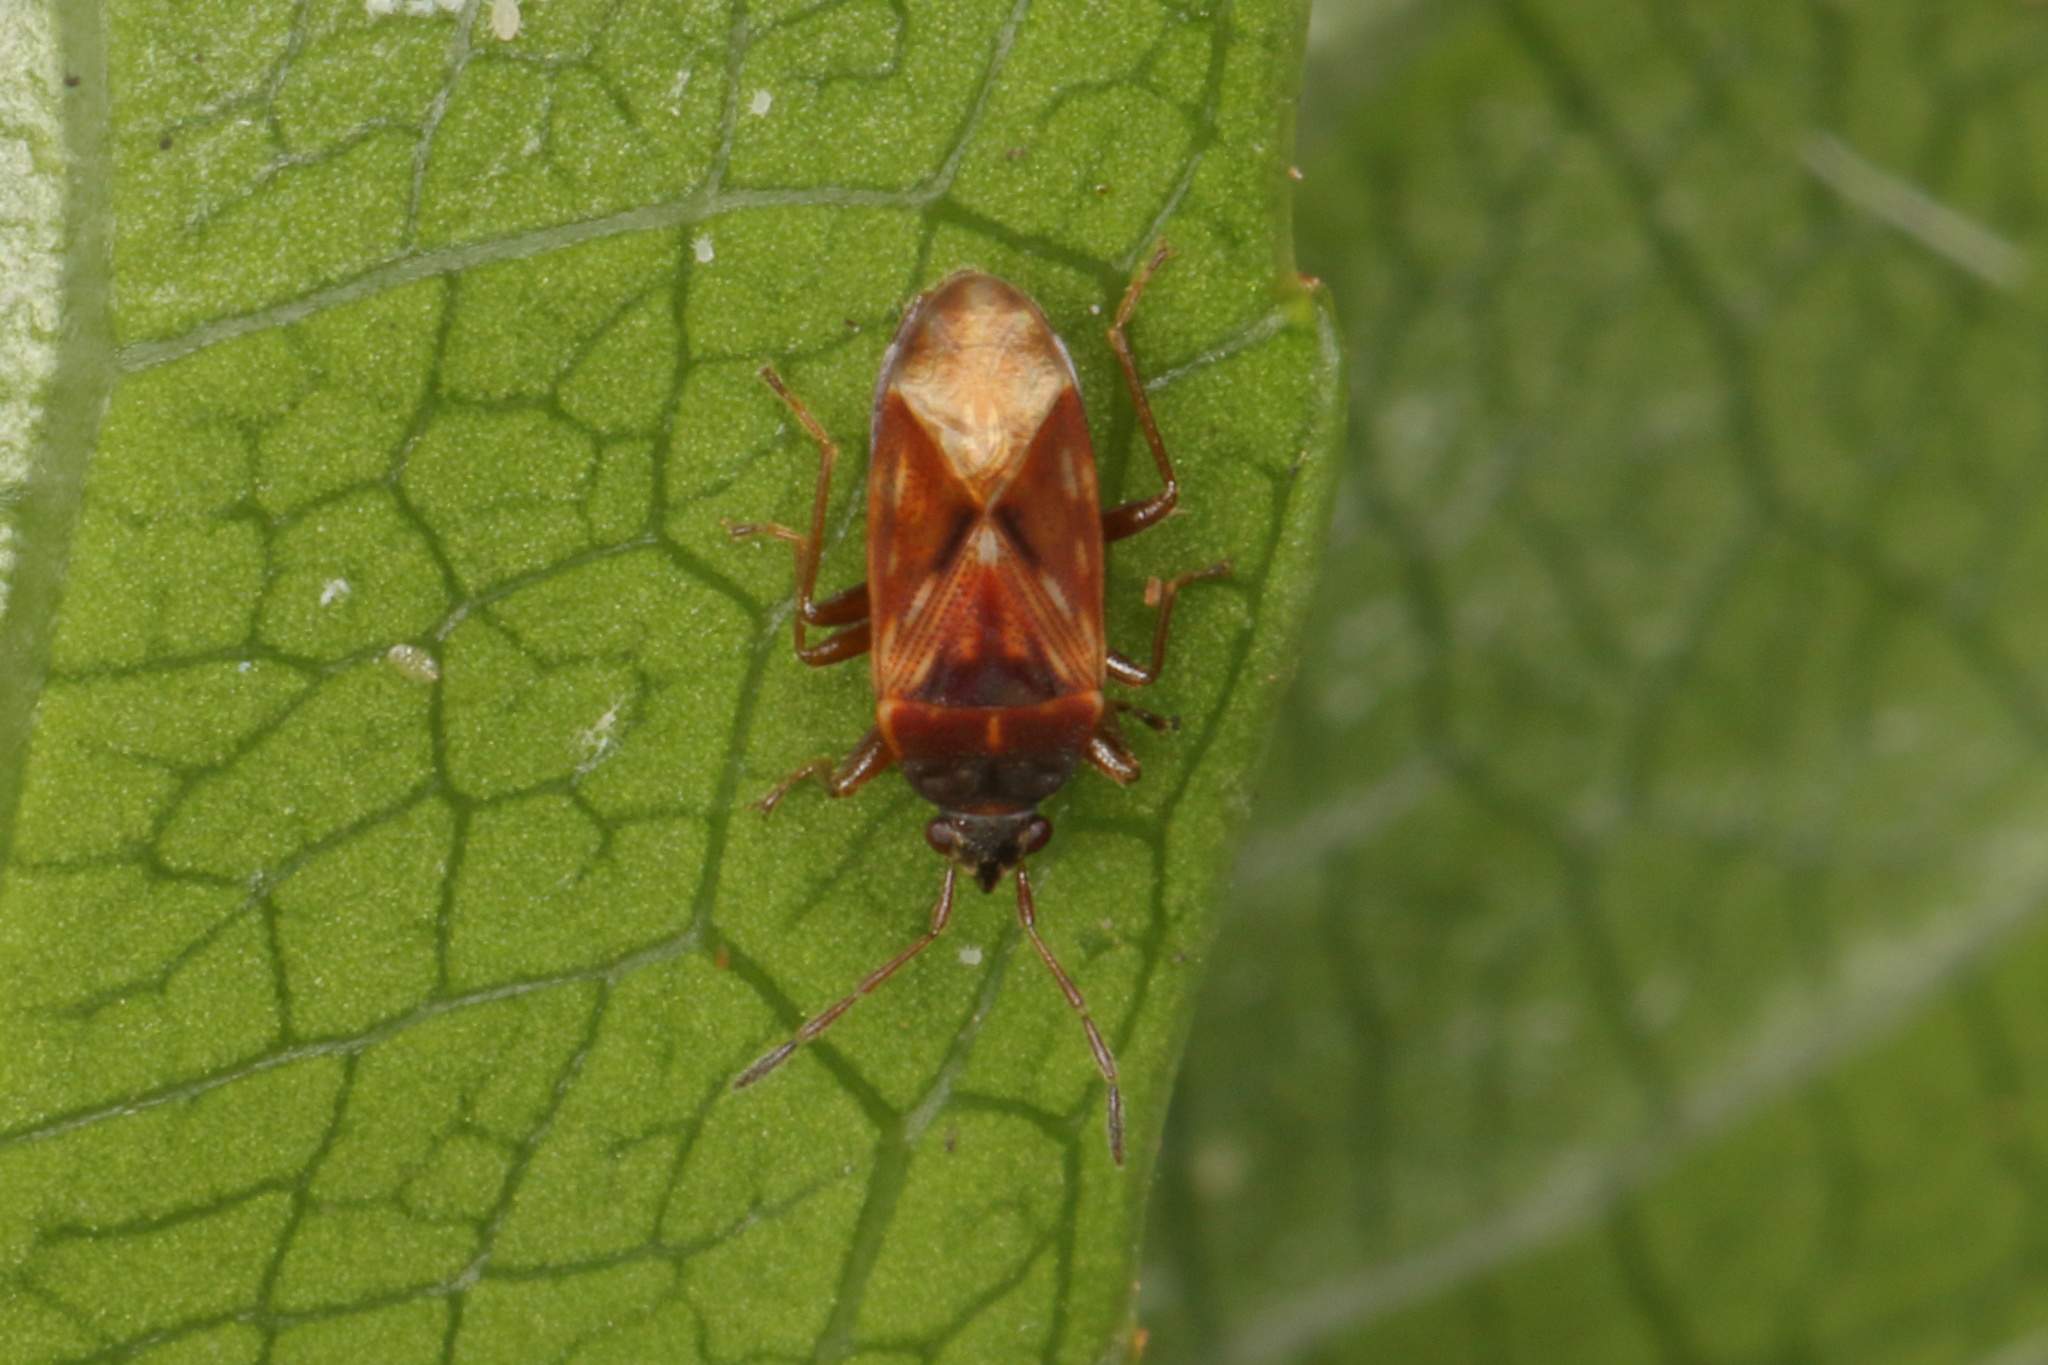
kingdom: Animalia
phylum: Arthropoda
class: Insecta
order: Hemiptera
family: Rhyparochromidae
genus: Targarema
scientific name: Targarema stali
